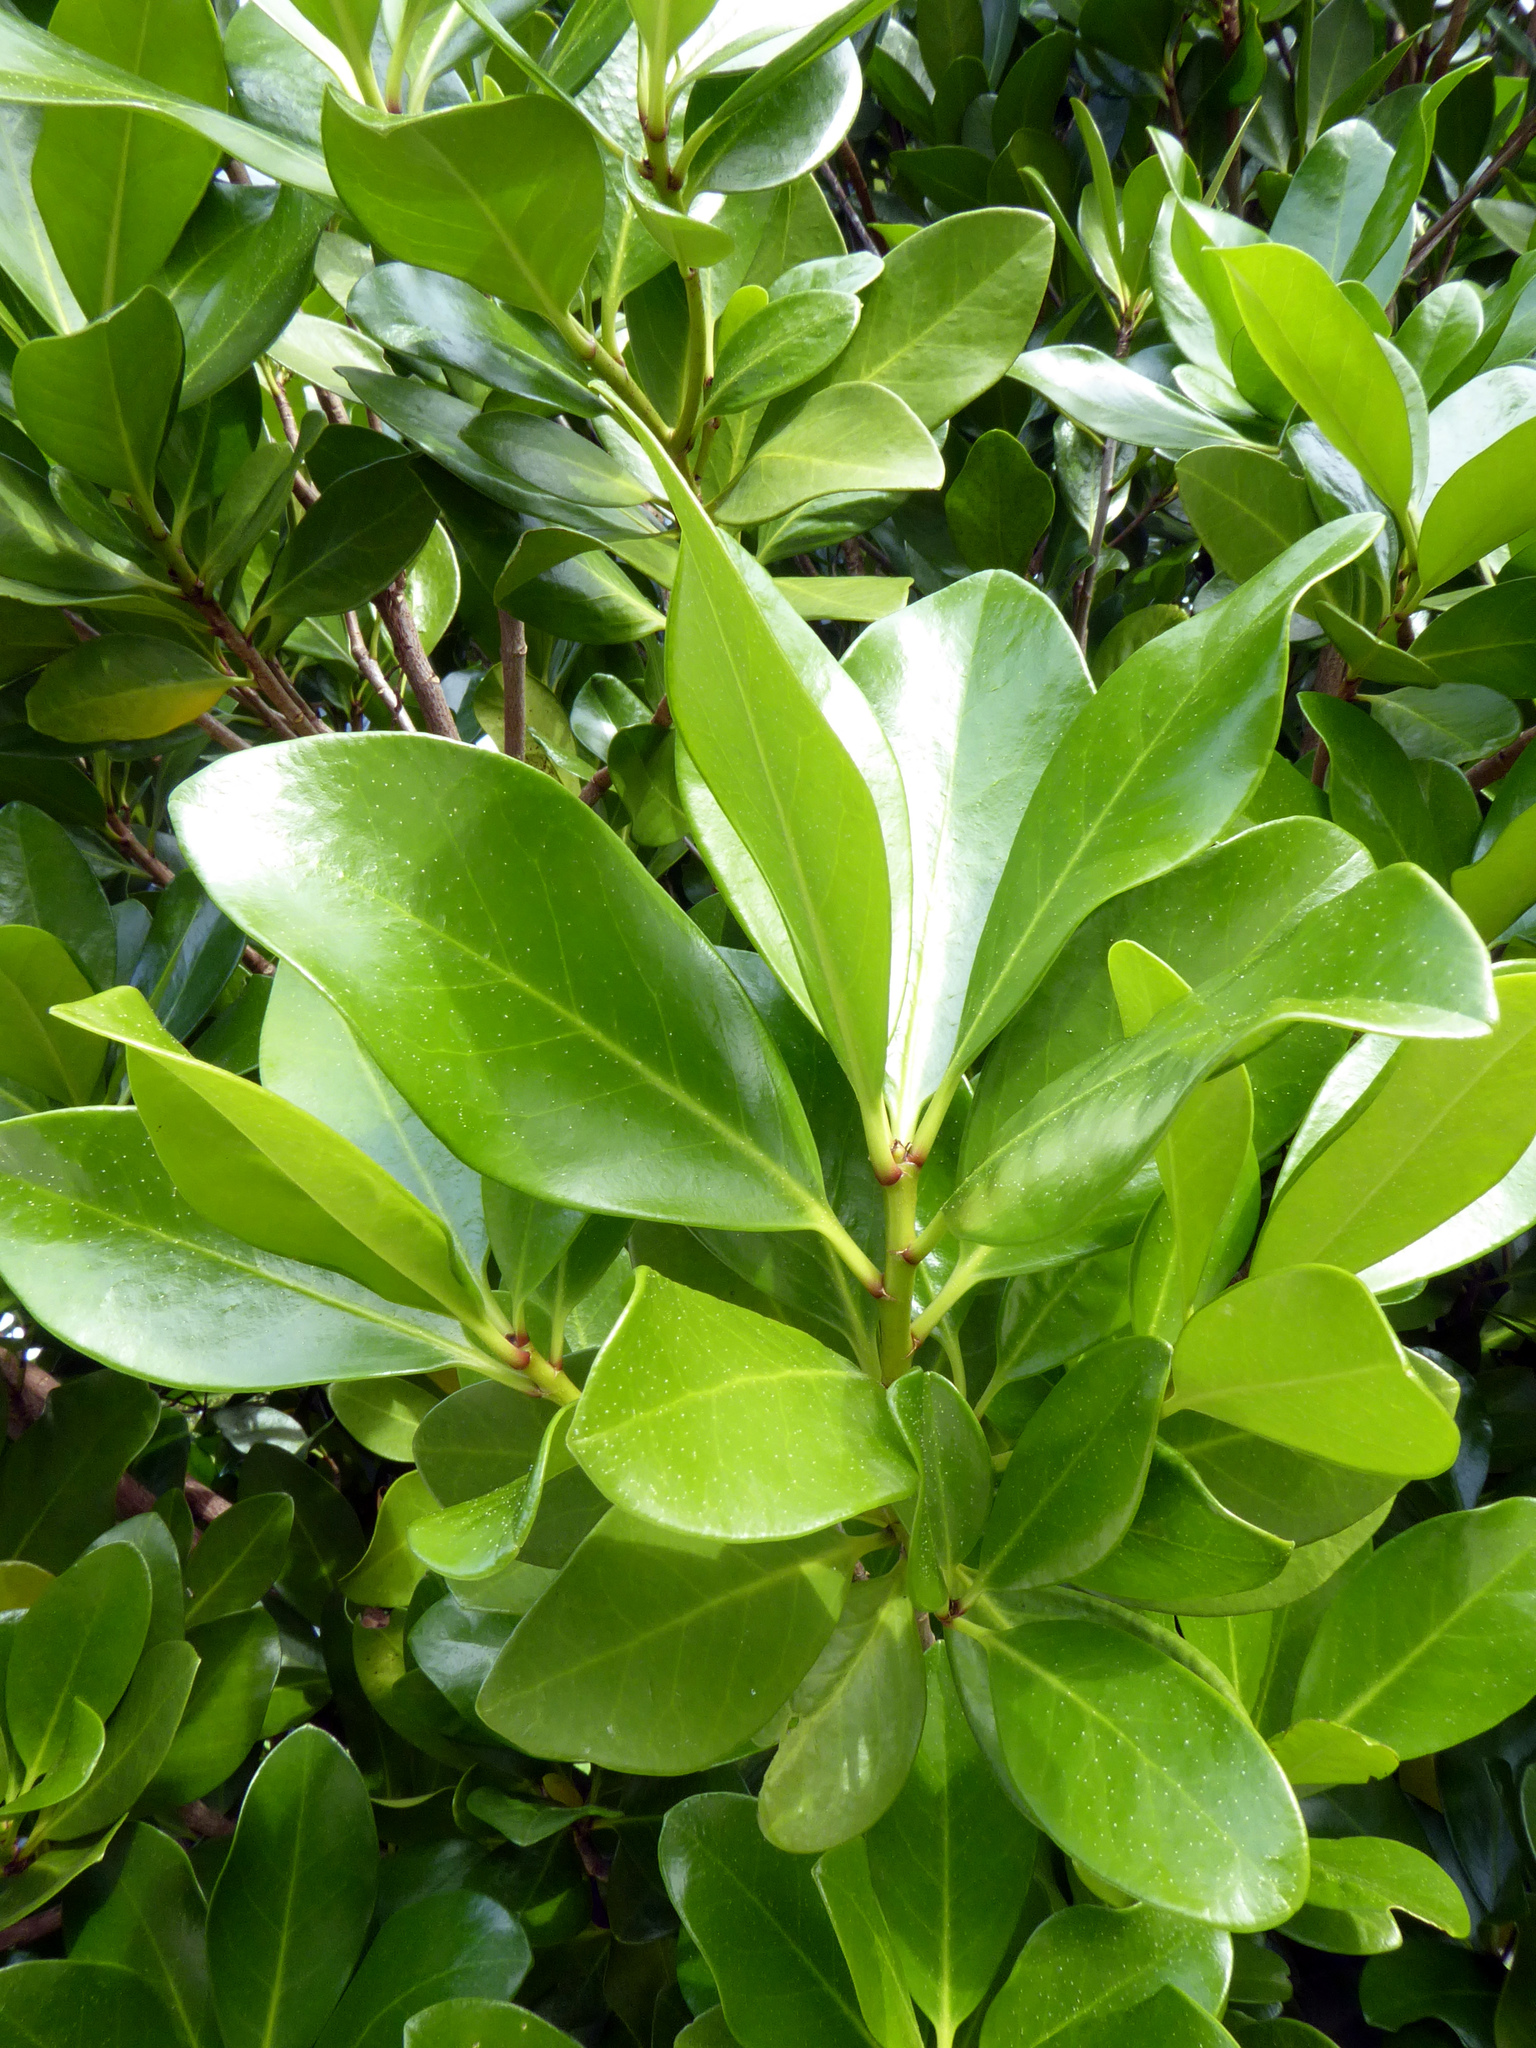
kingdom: Plantae
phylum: Tracheophyta
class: Magnoliopsida
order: Cucurbitales
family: Corynocarpaceae
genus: Corynocarpus
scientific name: Corynocarpus laevigatus
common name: New zealand laurel
